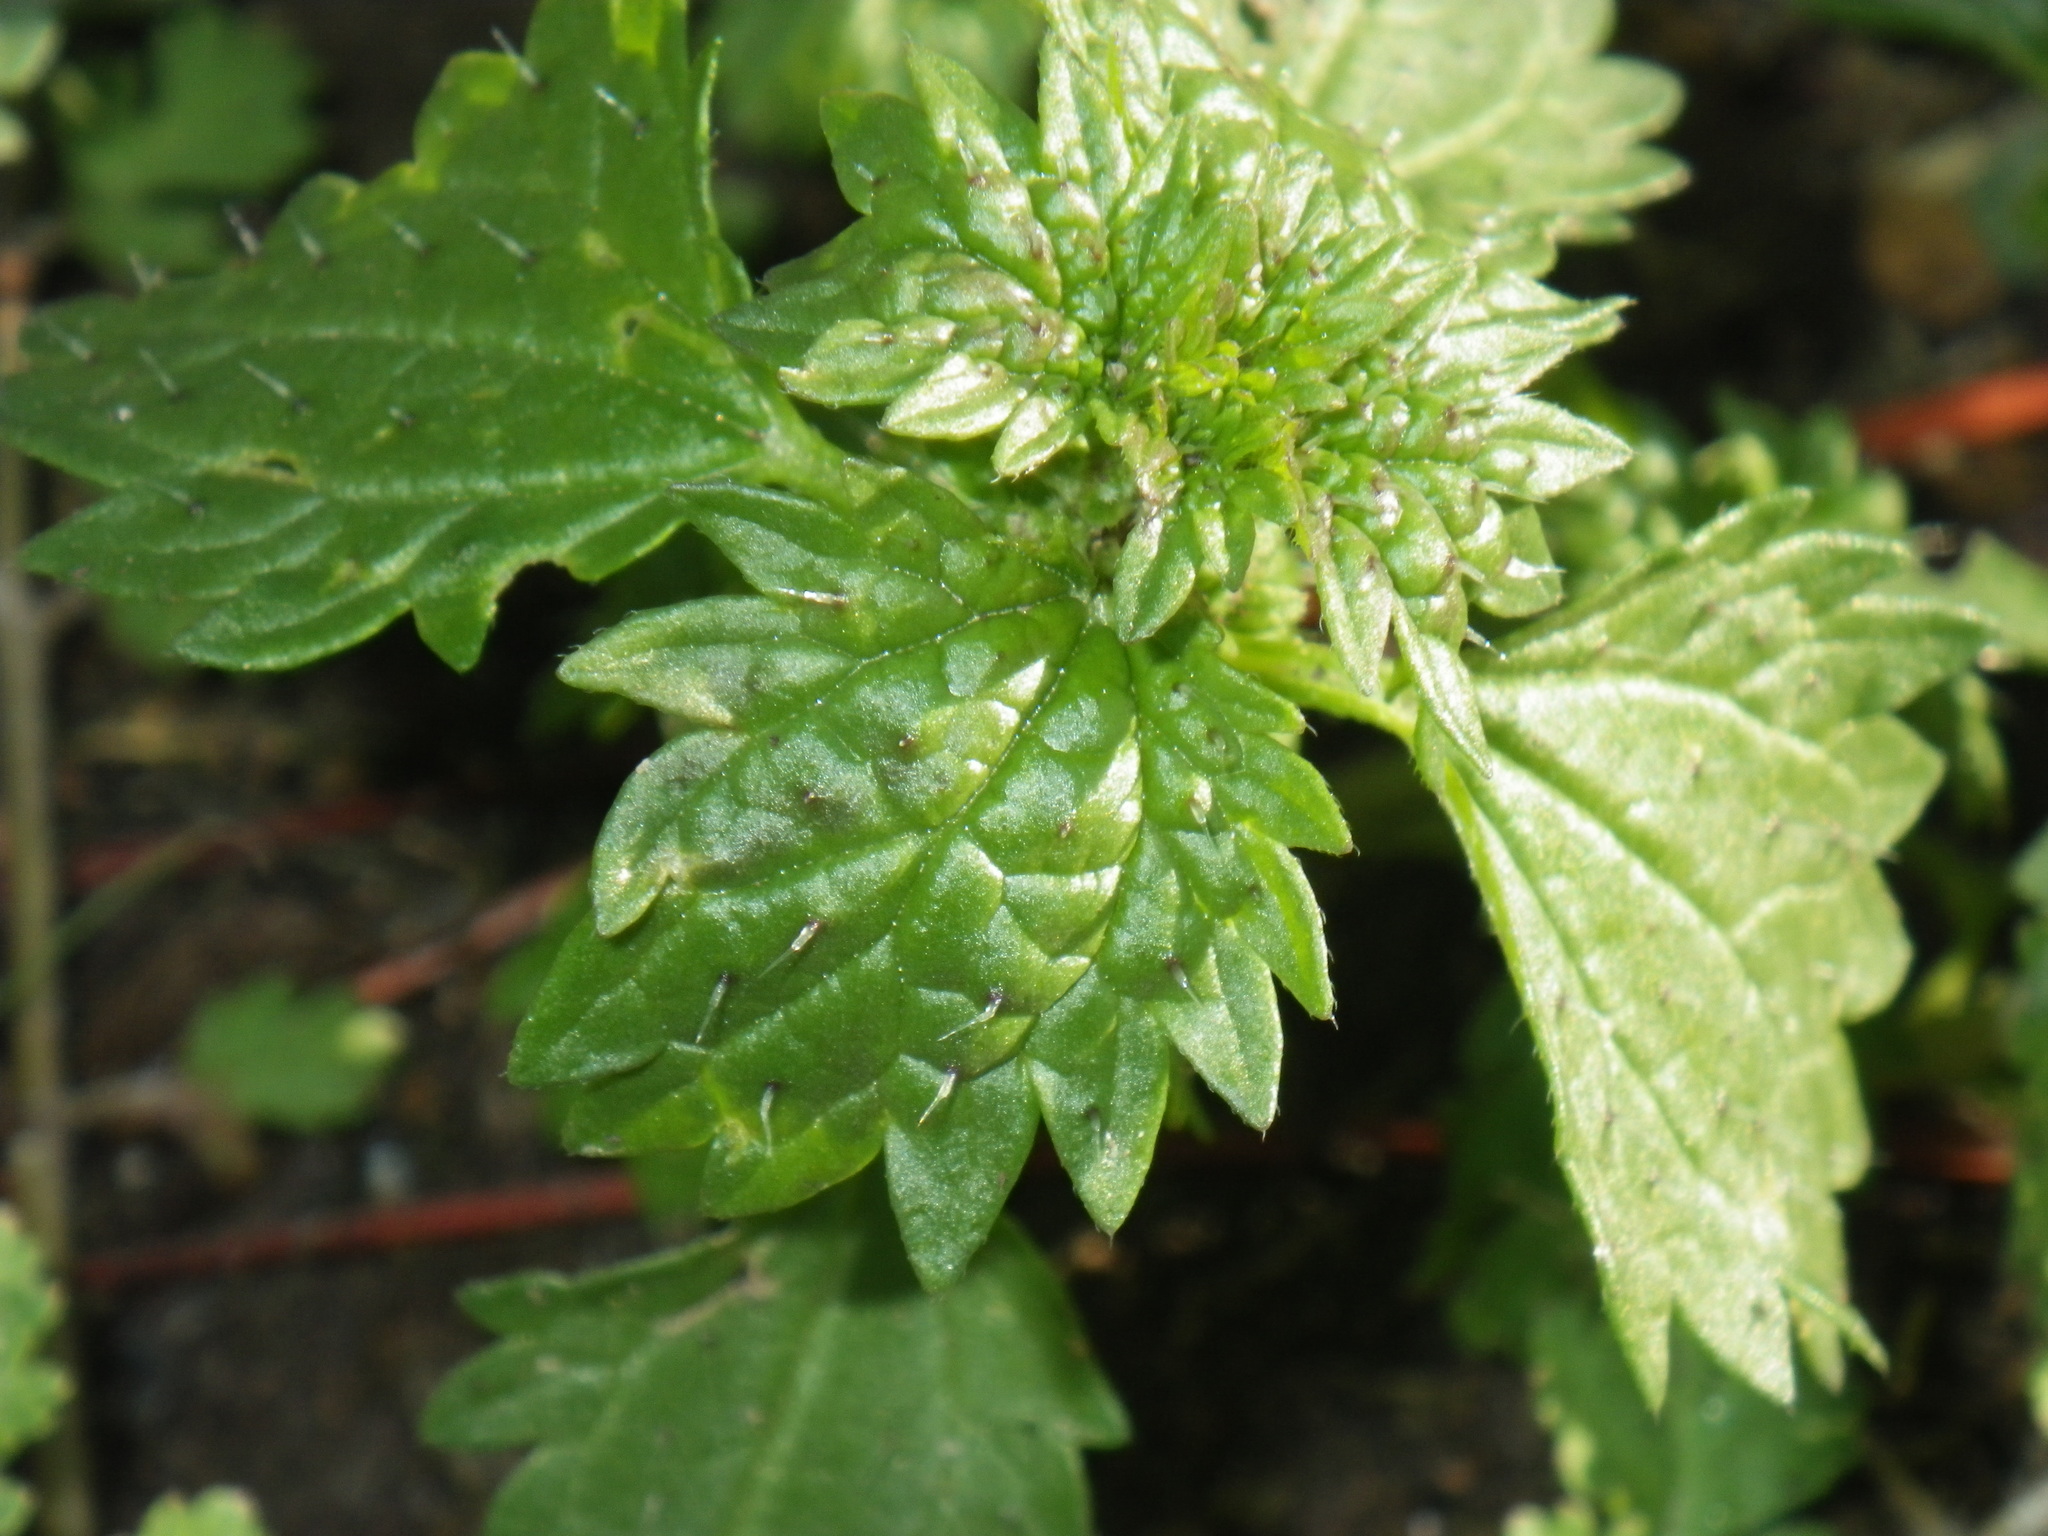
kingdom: Plantae
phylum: Tracheophyta
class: Magnoliopsida
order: Rosales
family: Urticaceae
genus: Urtica
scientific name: Urtica urens
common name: Dwarf nettle
